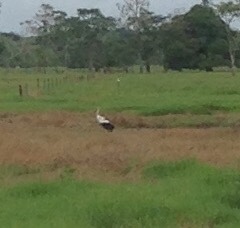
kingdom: Animalia
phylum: Chordata
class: Aves
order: Ciconiiformes
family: Ciconiidae
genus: Ciconia
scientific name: Ciconia maguari
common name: Maguari stork
